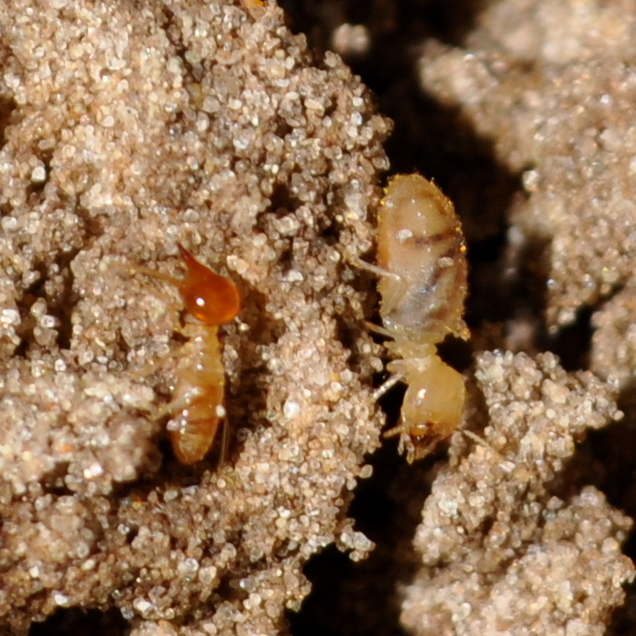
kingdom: Animalia
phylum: Arthropoda
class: Insecta
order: Blattodea
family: Termitidae
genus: Cortaritermes
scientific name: Cortaritermes fulviceps
